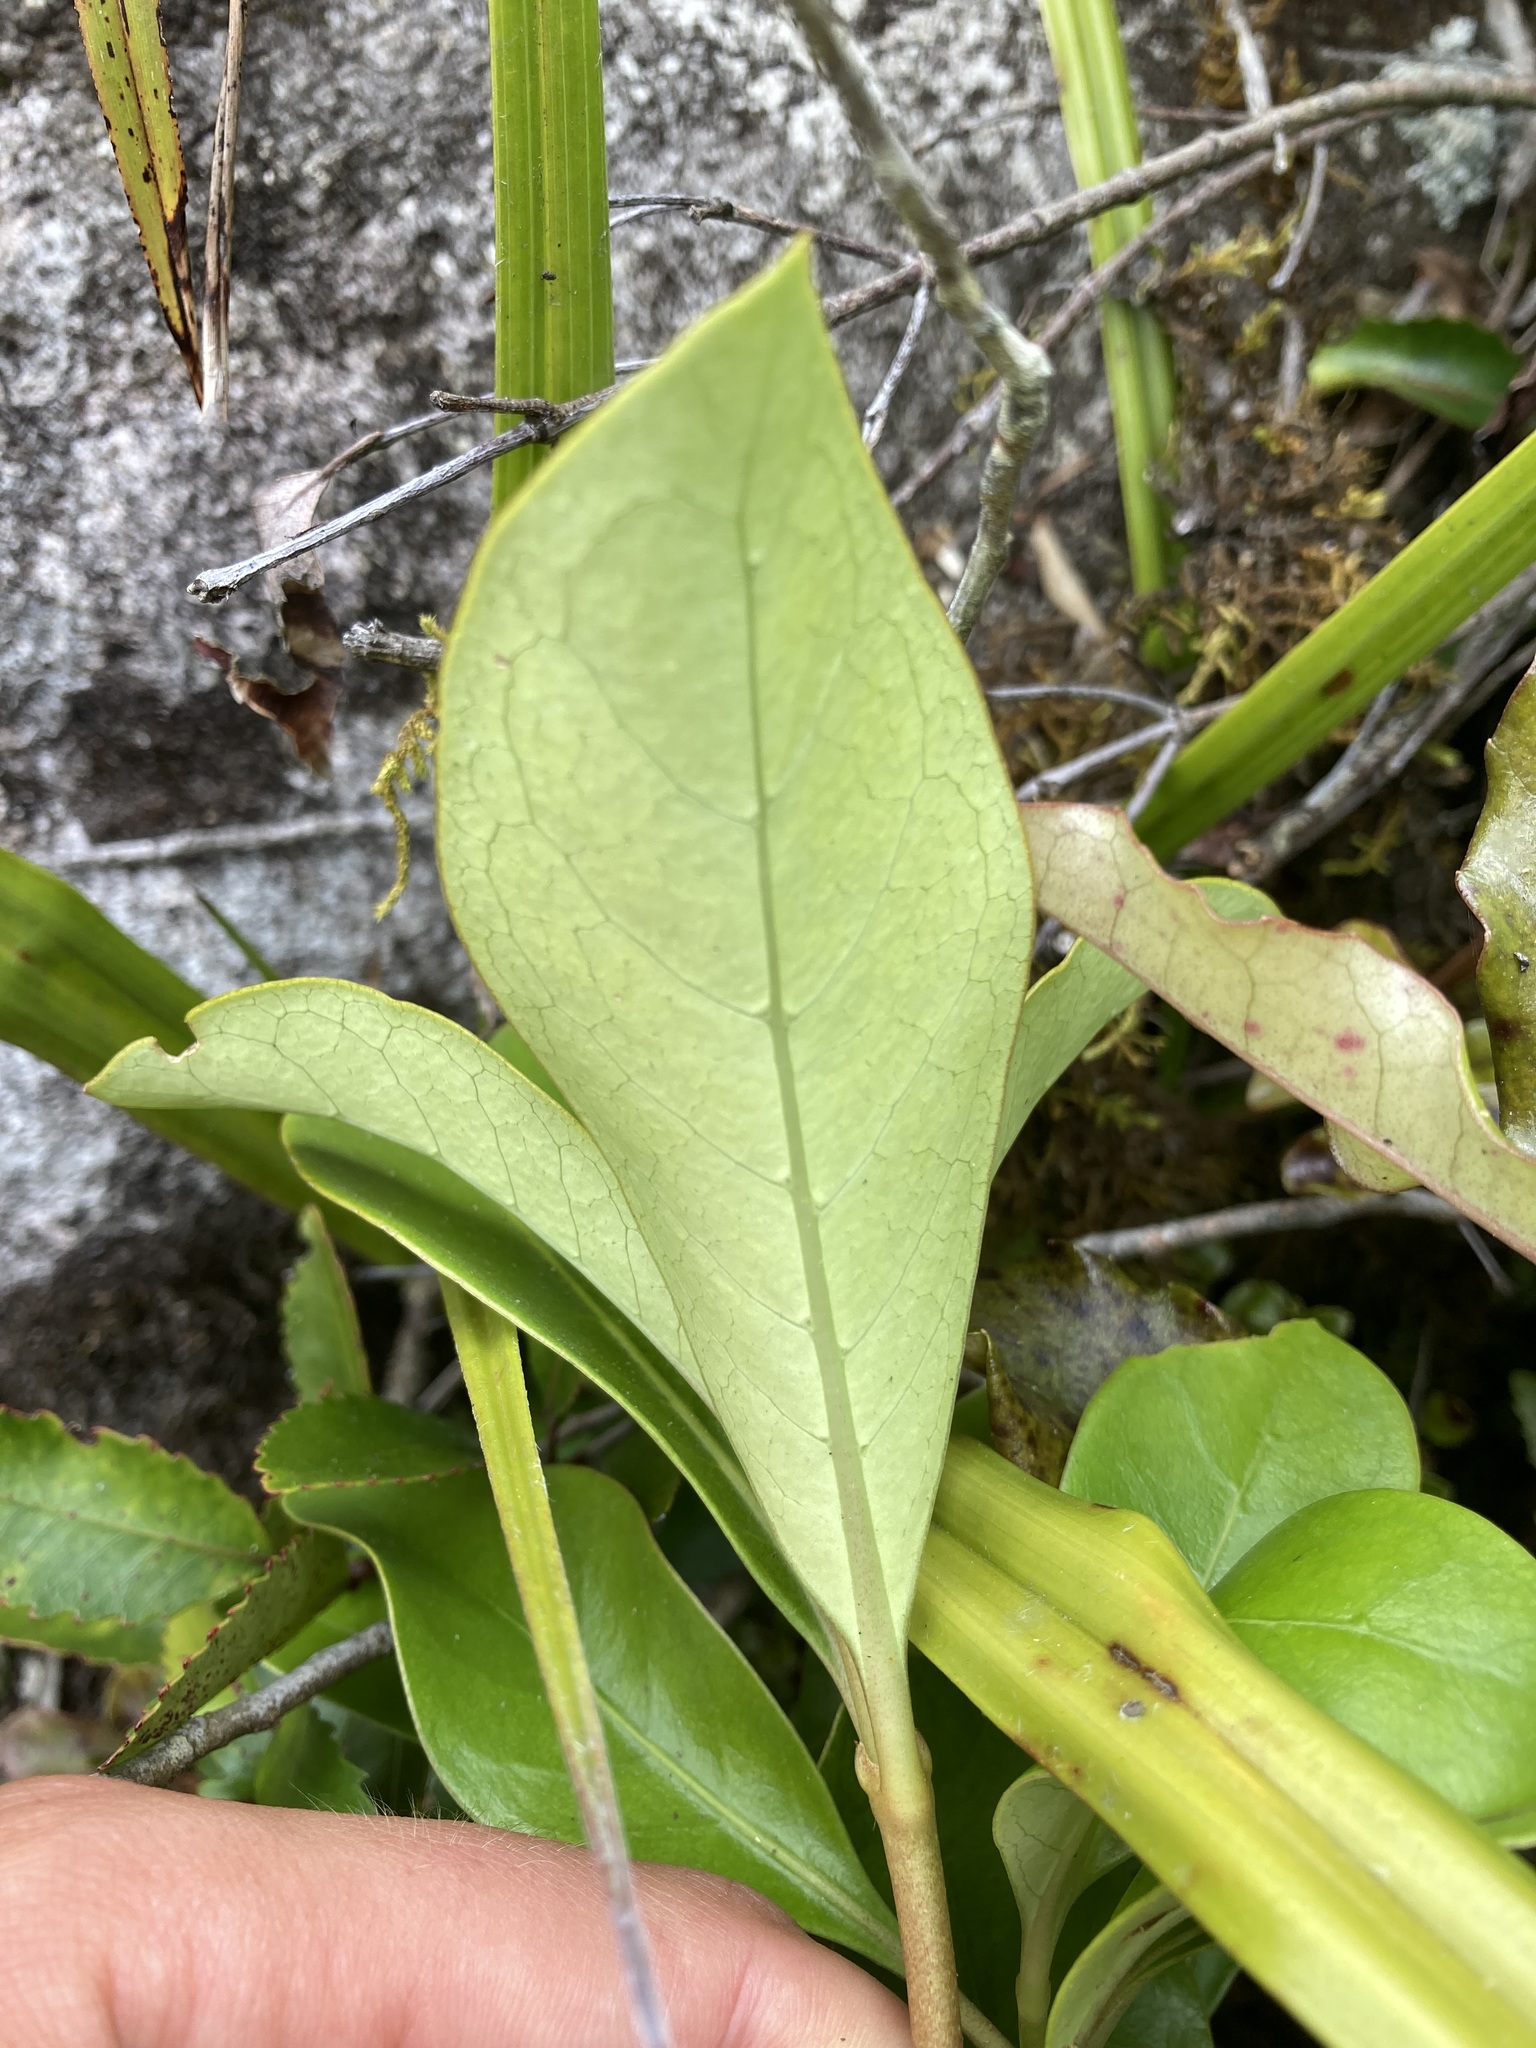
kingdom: Plantae
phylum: Tracheophyta
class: Magnoliopsida
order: Gentianales
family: Rubiaceae
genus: Coprosma
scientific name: Coprosma lucida
